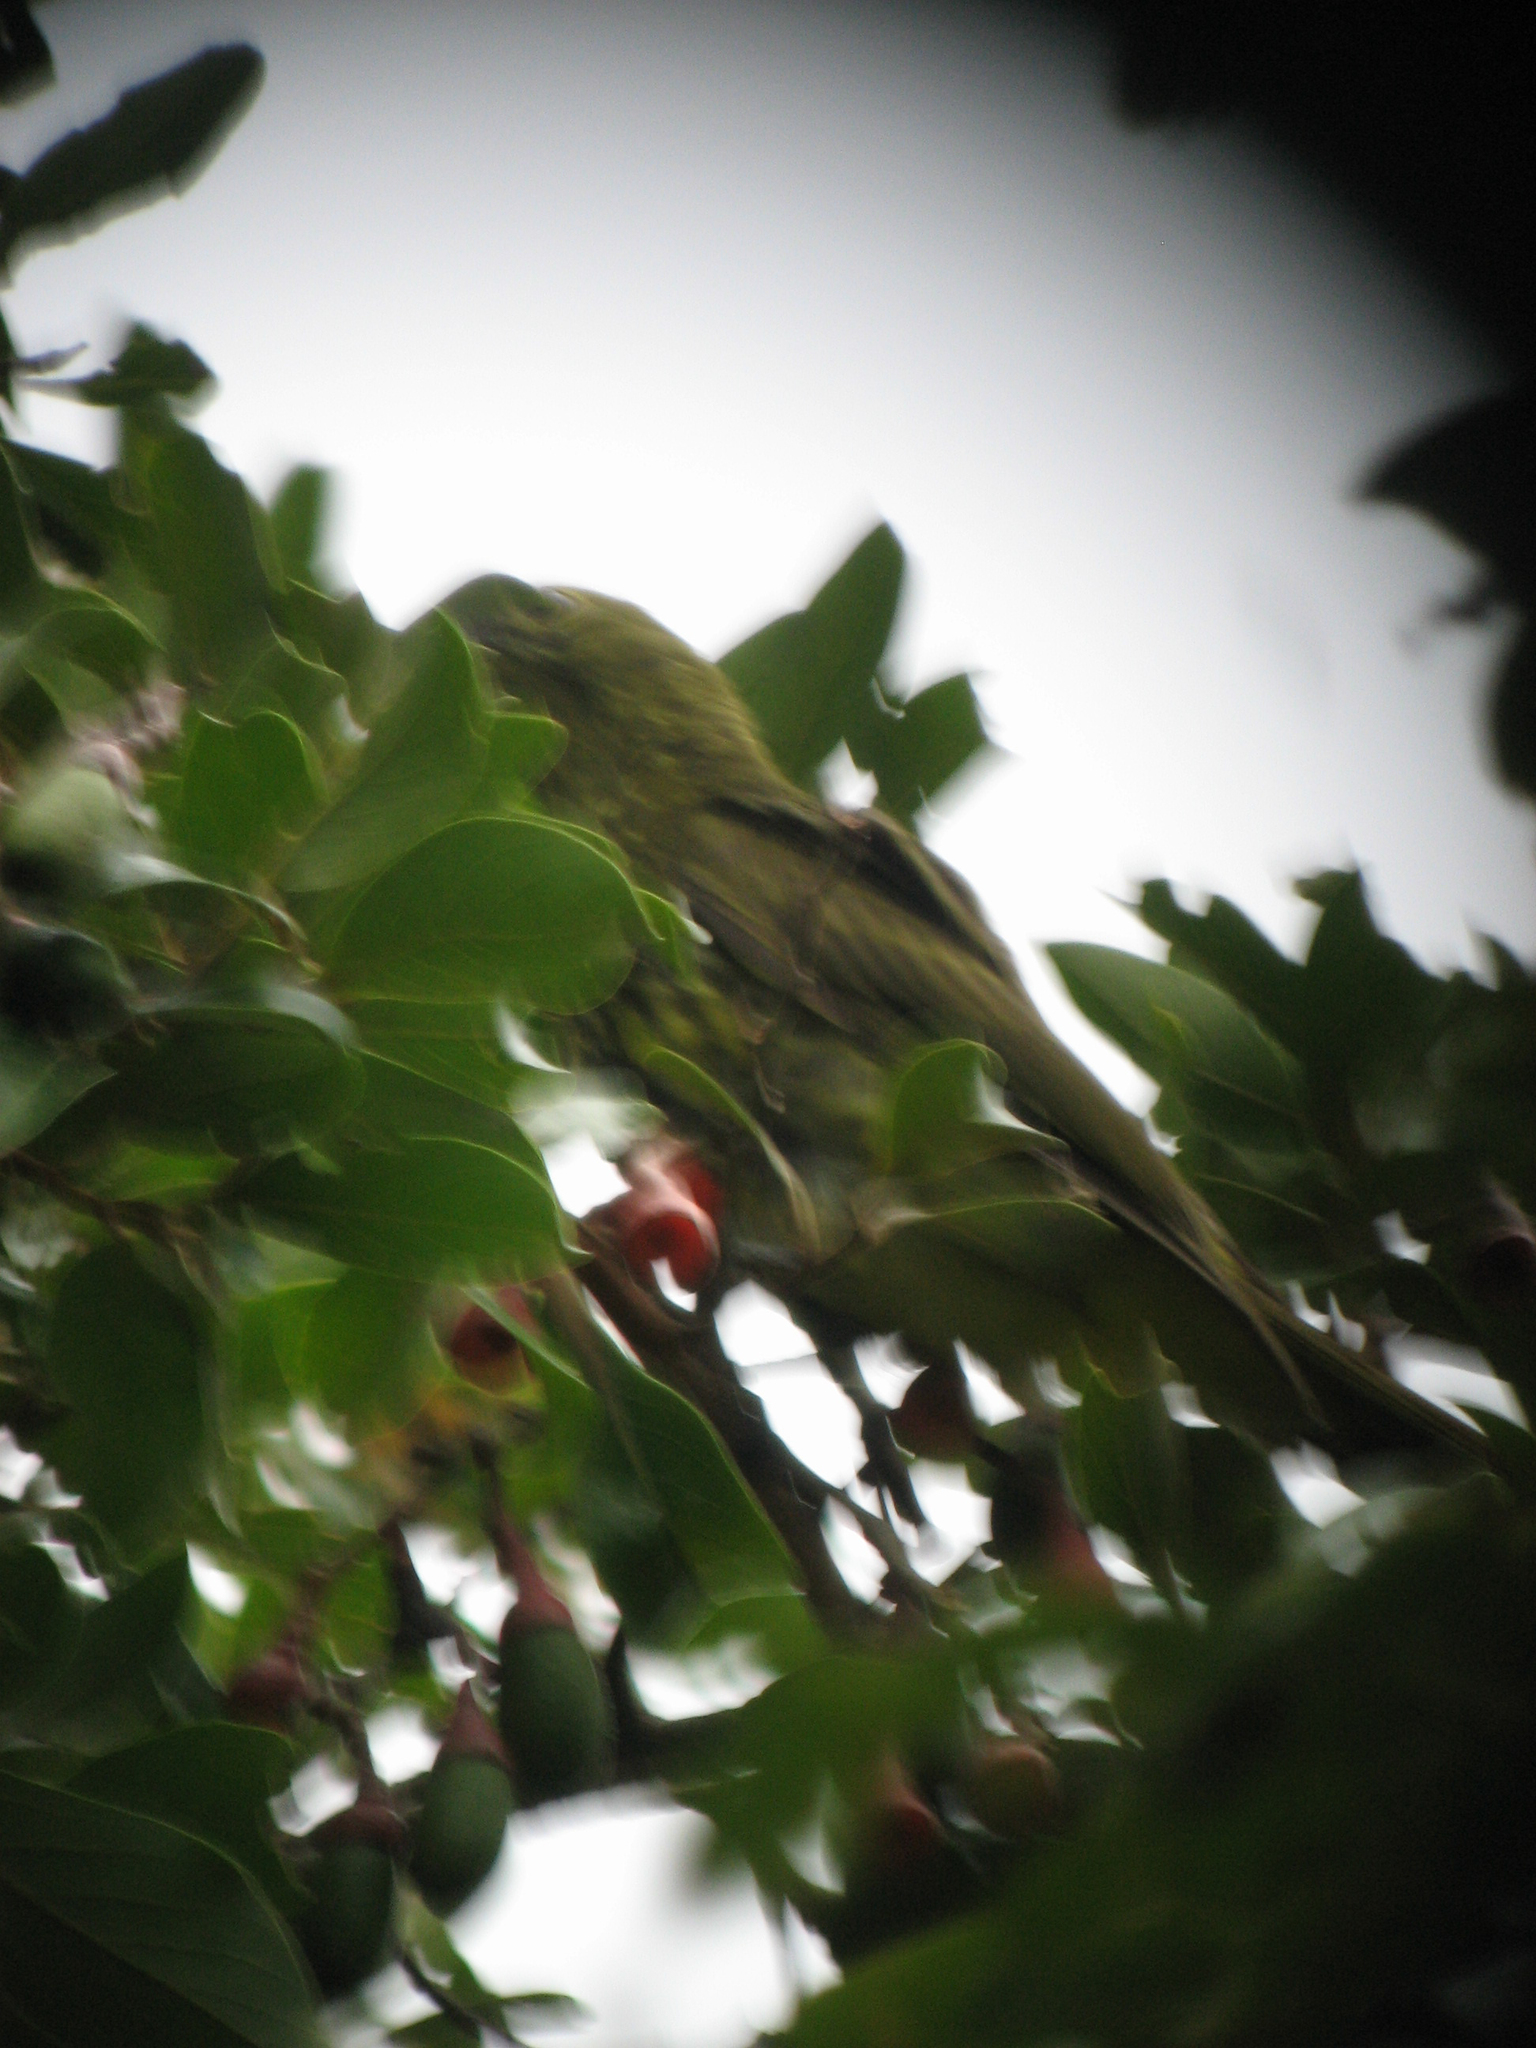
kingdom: Animalia
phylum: Chordata
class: Aves
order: Passeriformes
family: Cotingidae
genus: Procnias
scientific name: Procnias tricarunculatus
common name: Three-wattled bellbird
